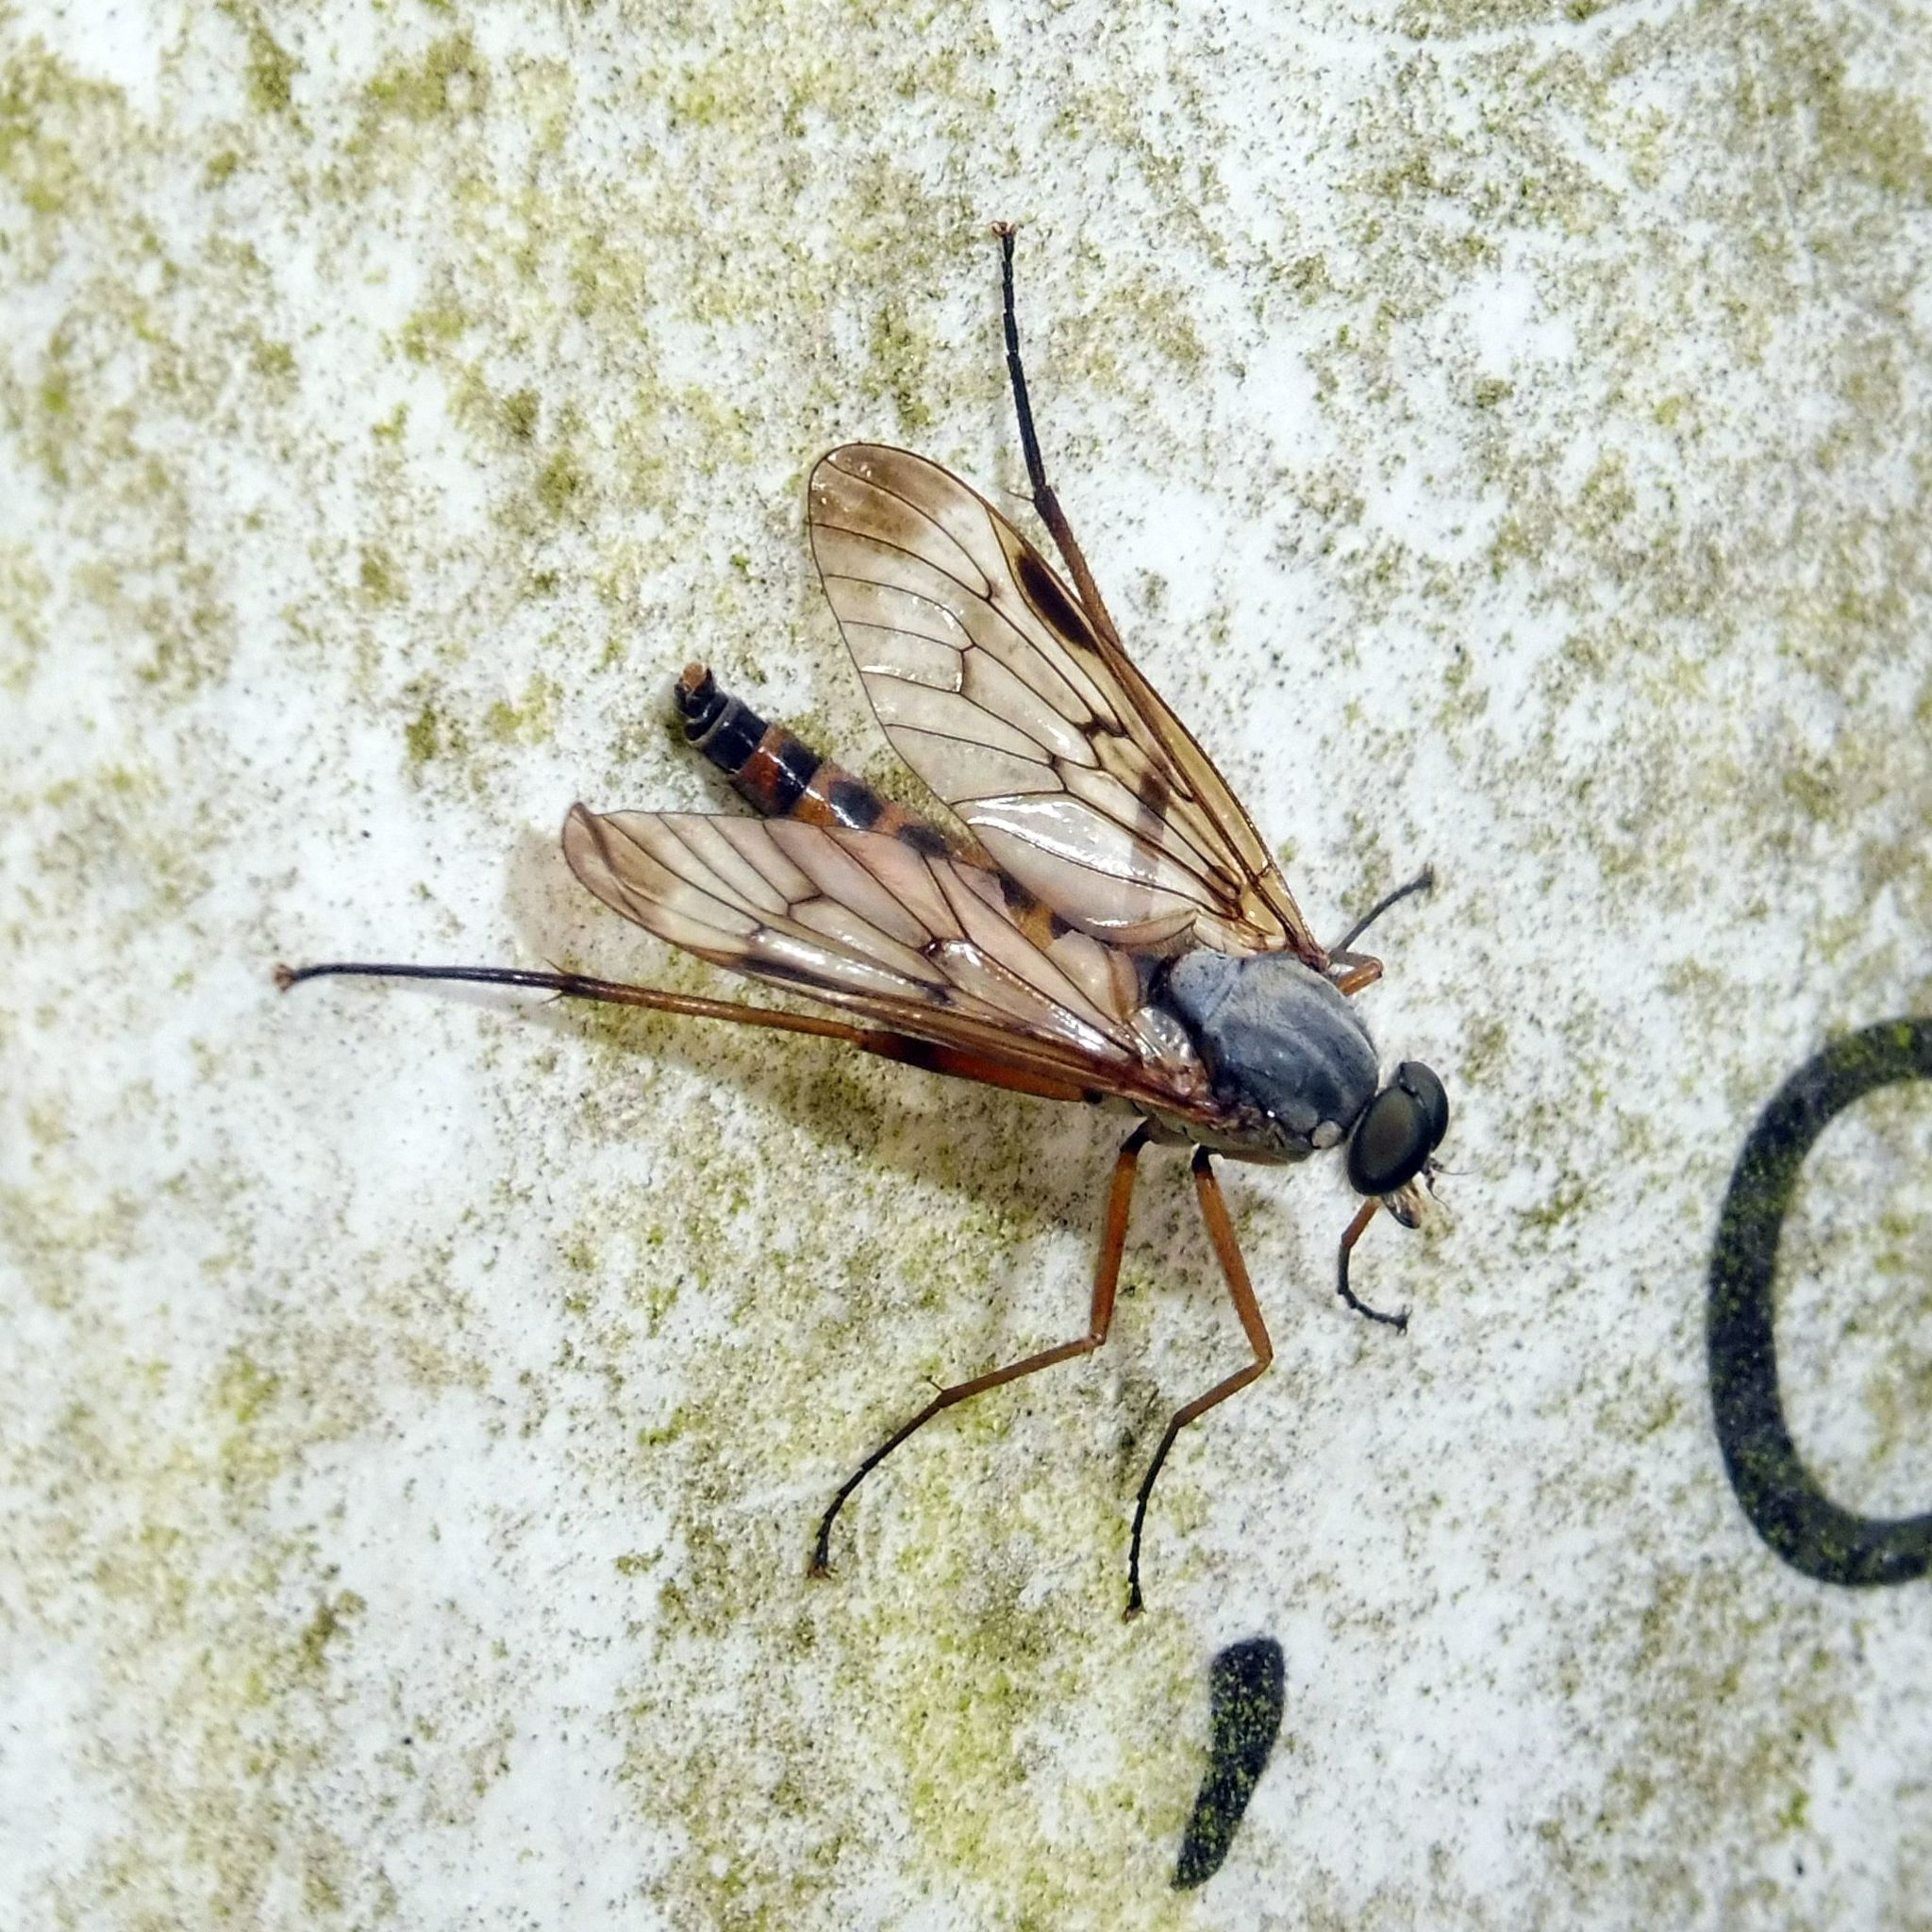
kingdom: Animalia
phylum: Arthropoda
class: Insecta
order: Diptera
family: Rhagionidae
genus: Rhagio
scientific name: Rhagio scolopacea
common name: Downlooker snipefly
